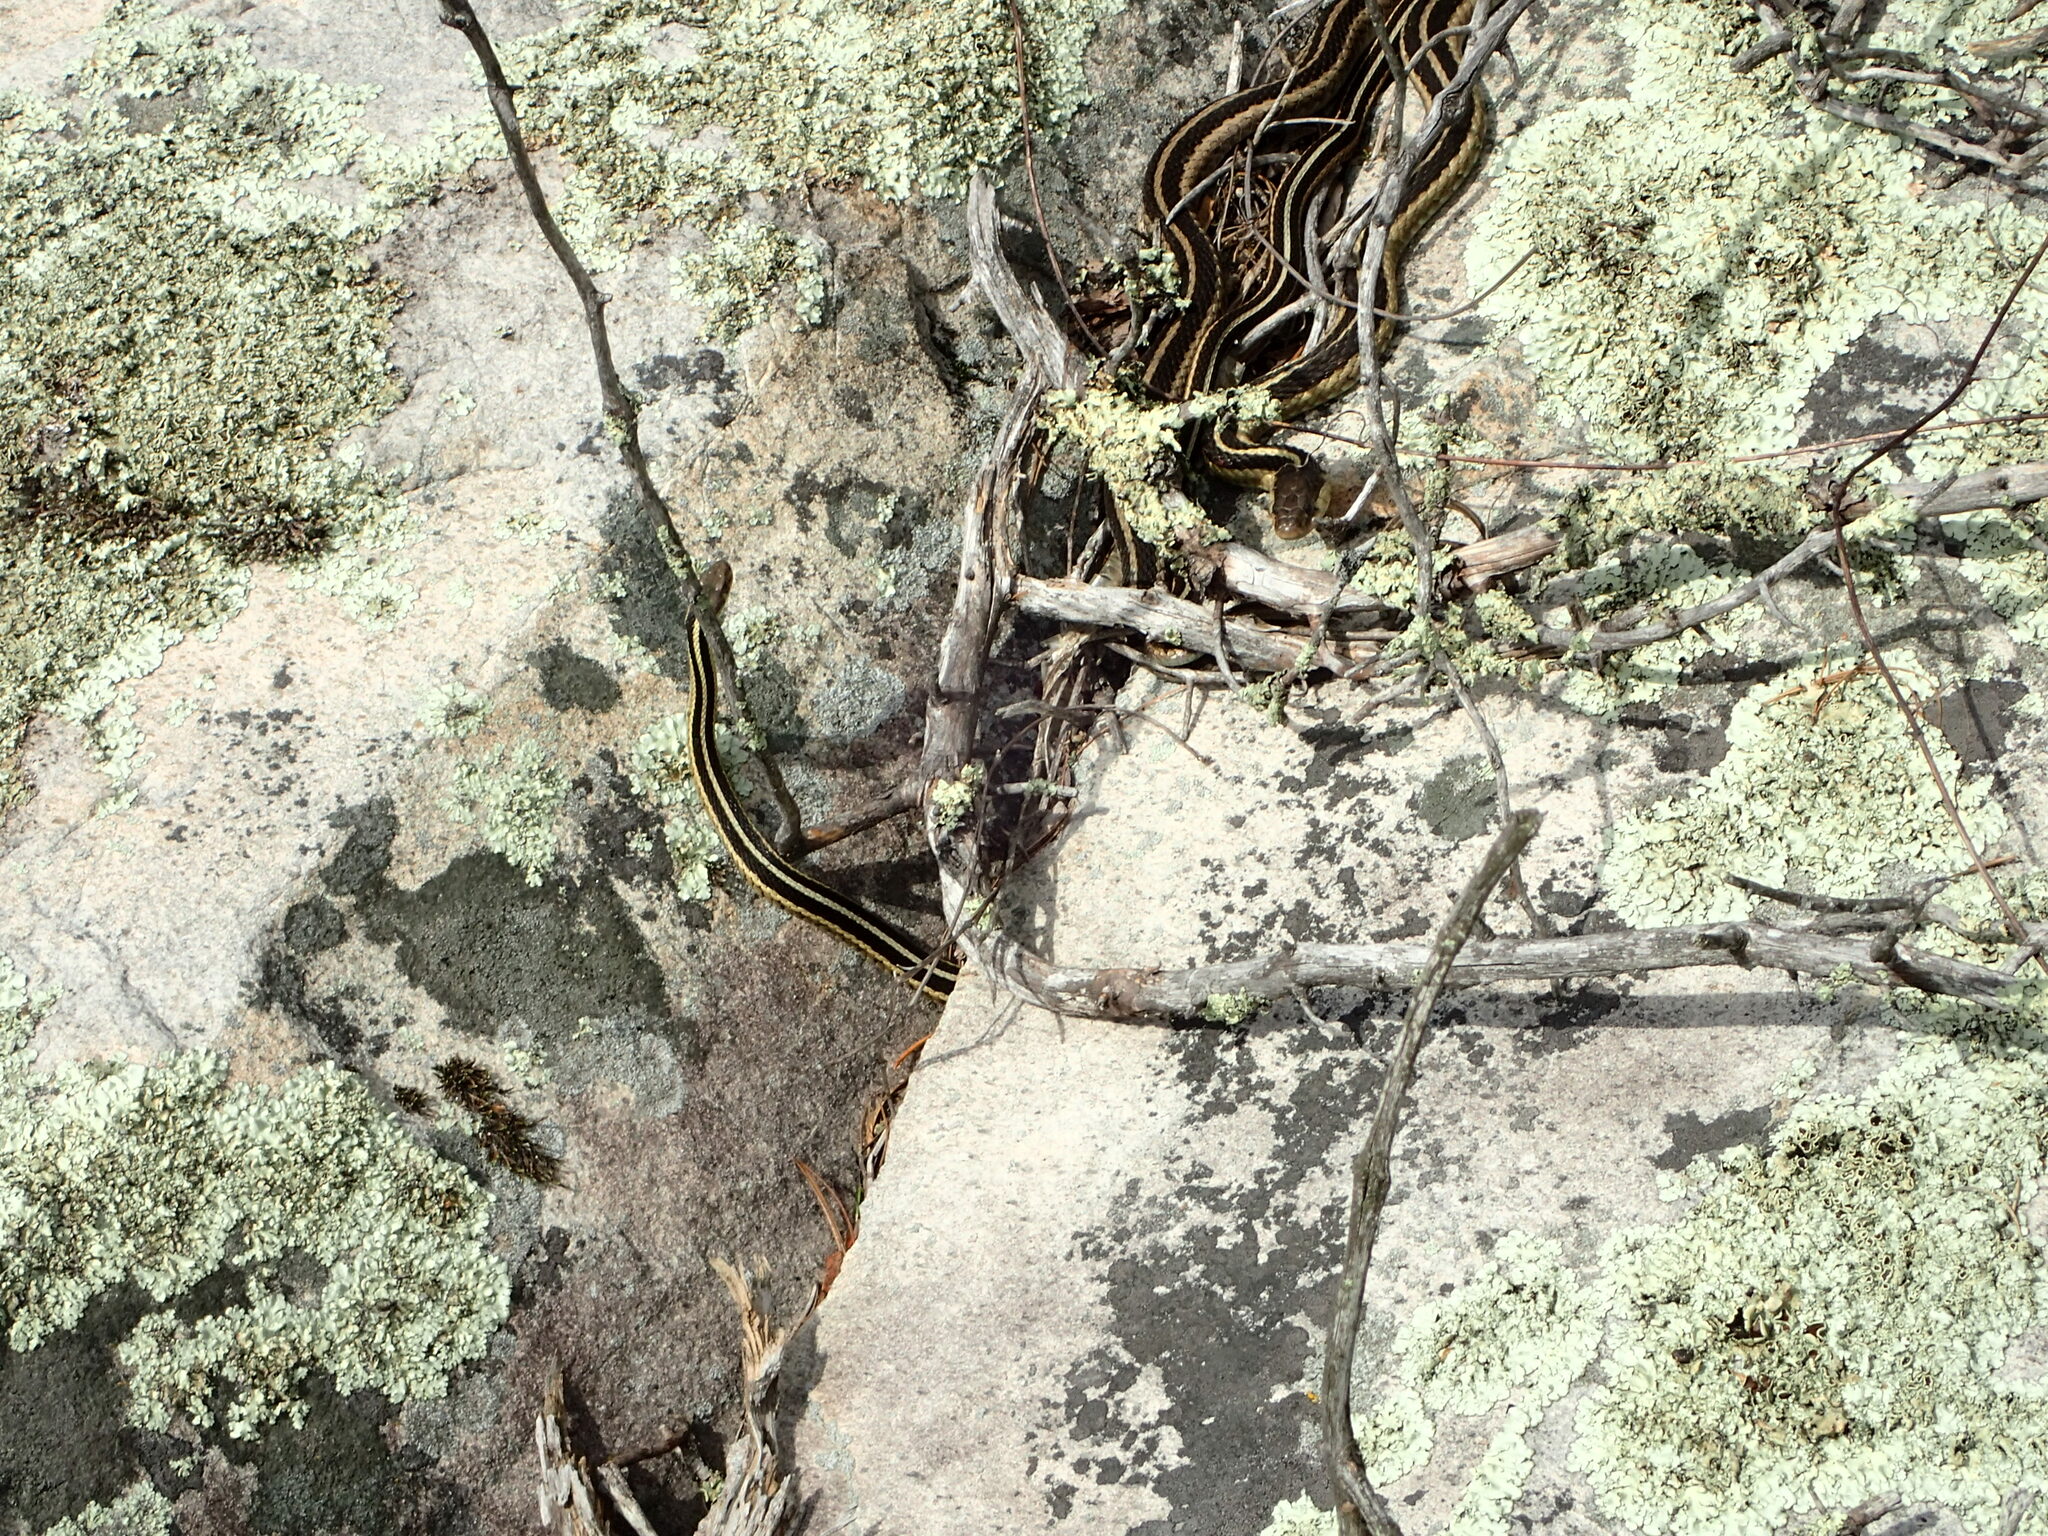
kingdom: Animalia
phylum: Chordata
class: Squamata
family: Colubridae
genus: Thamnophis
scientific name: Thamnophis sirtalis
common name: Common garter snake
